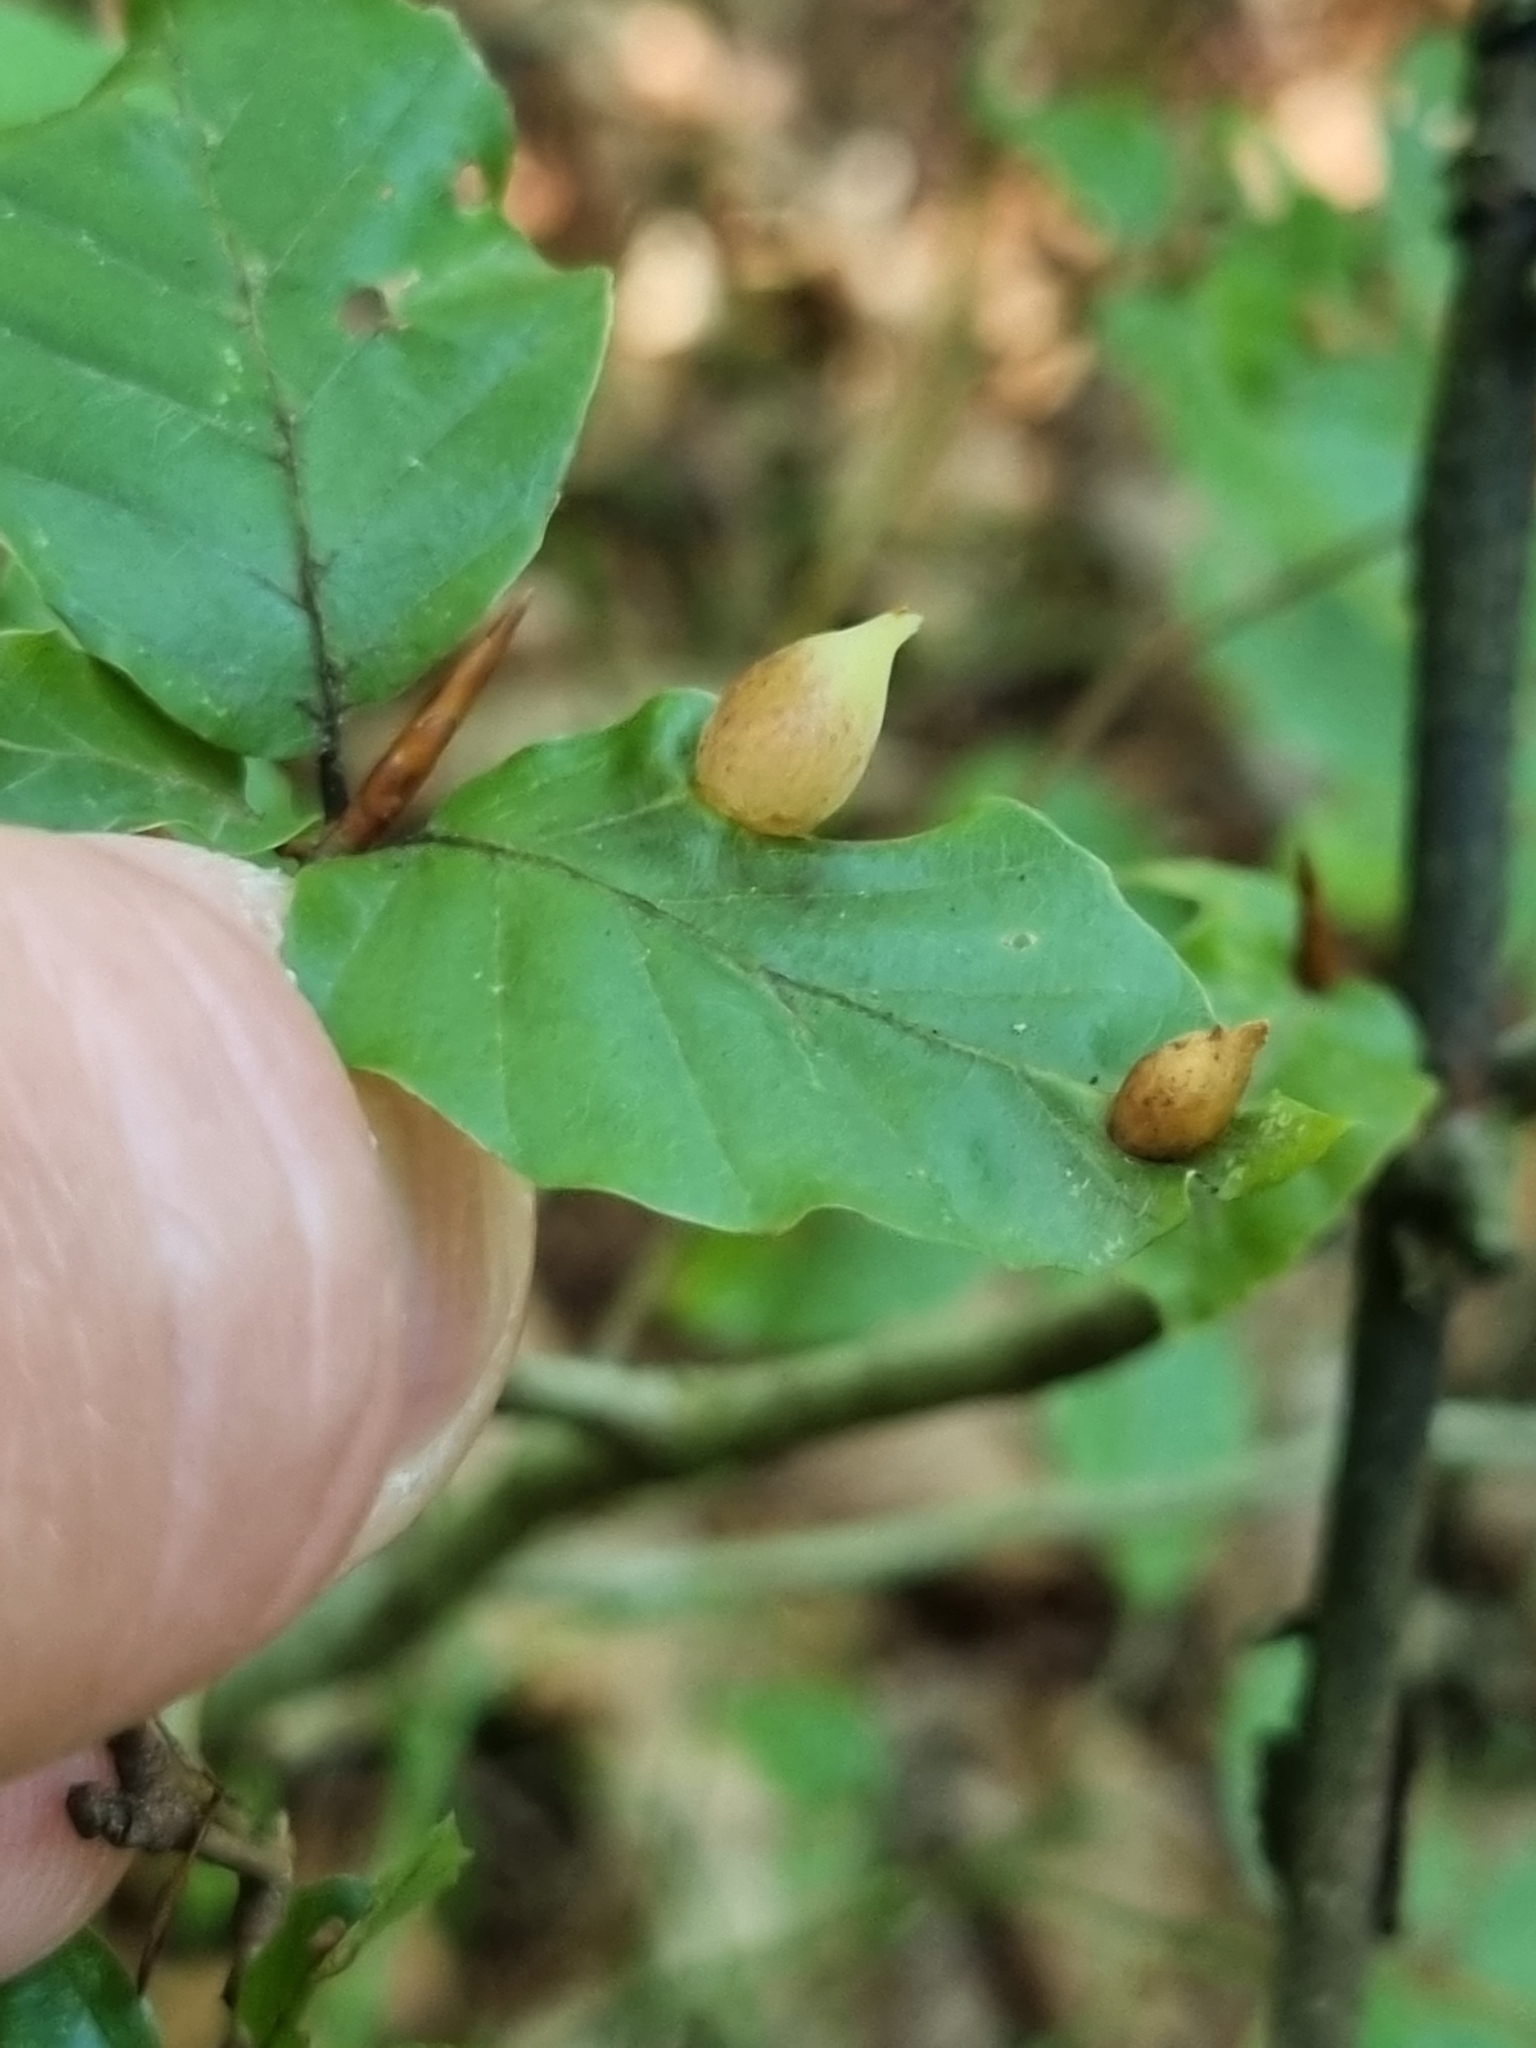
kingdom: Animalia
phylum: Arthropoda
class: Insecta
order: Diptera
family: Cecidomyiidae
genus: Mikiola
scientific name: Mikiola fagi
